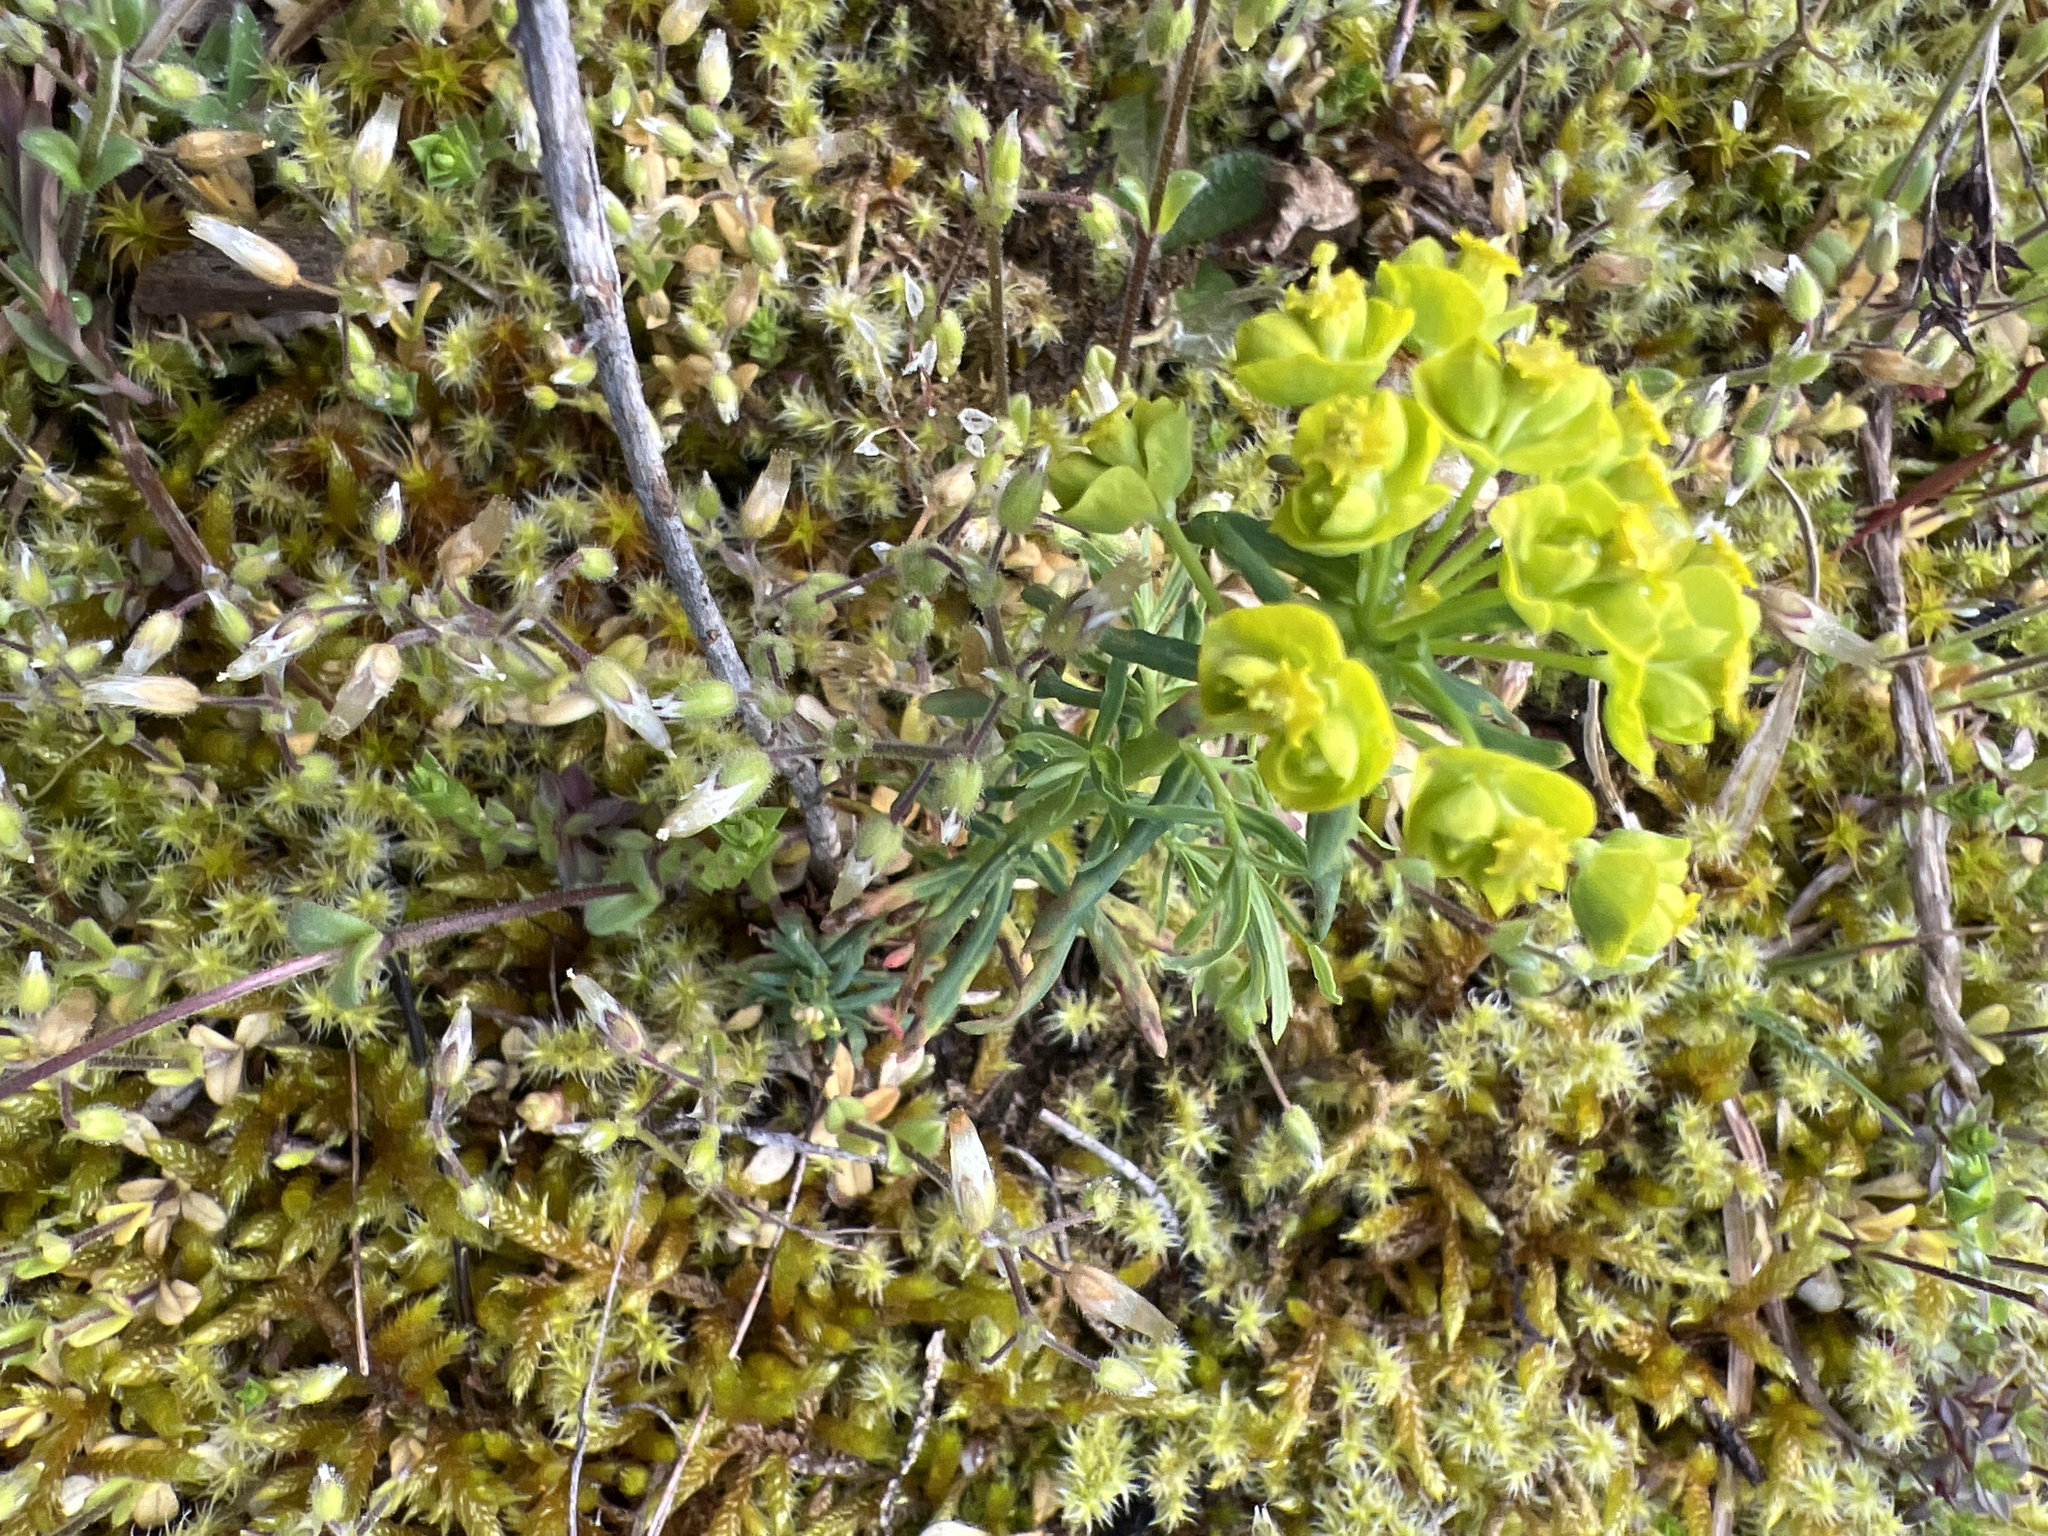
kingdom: Plantae
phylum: Tracheophyta
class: Magnoliopsida
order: Malpighiales
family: Euphorbiaceae
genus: Euphorbia
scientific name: Euphorbia cyparissias
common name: Cypress spurge
